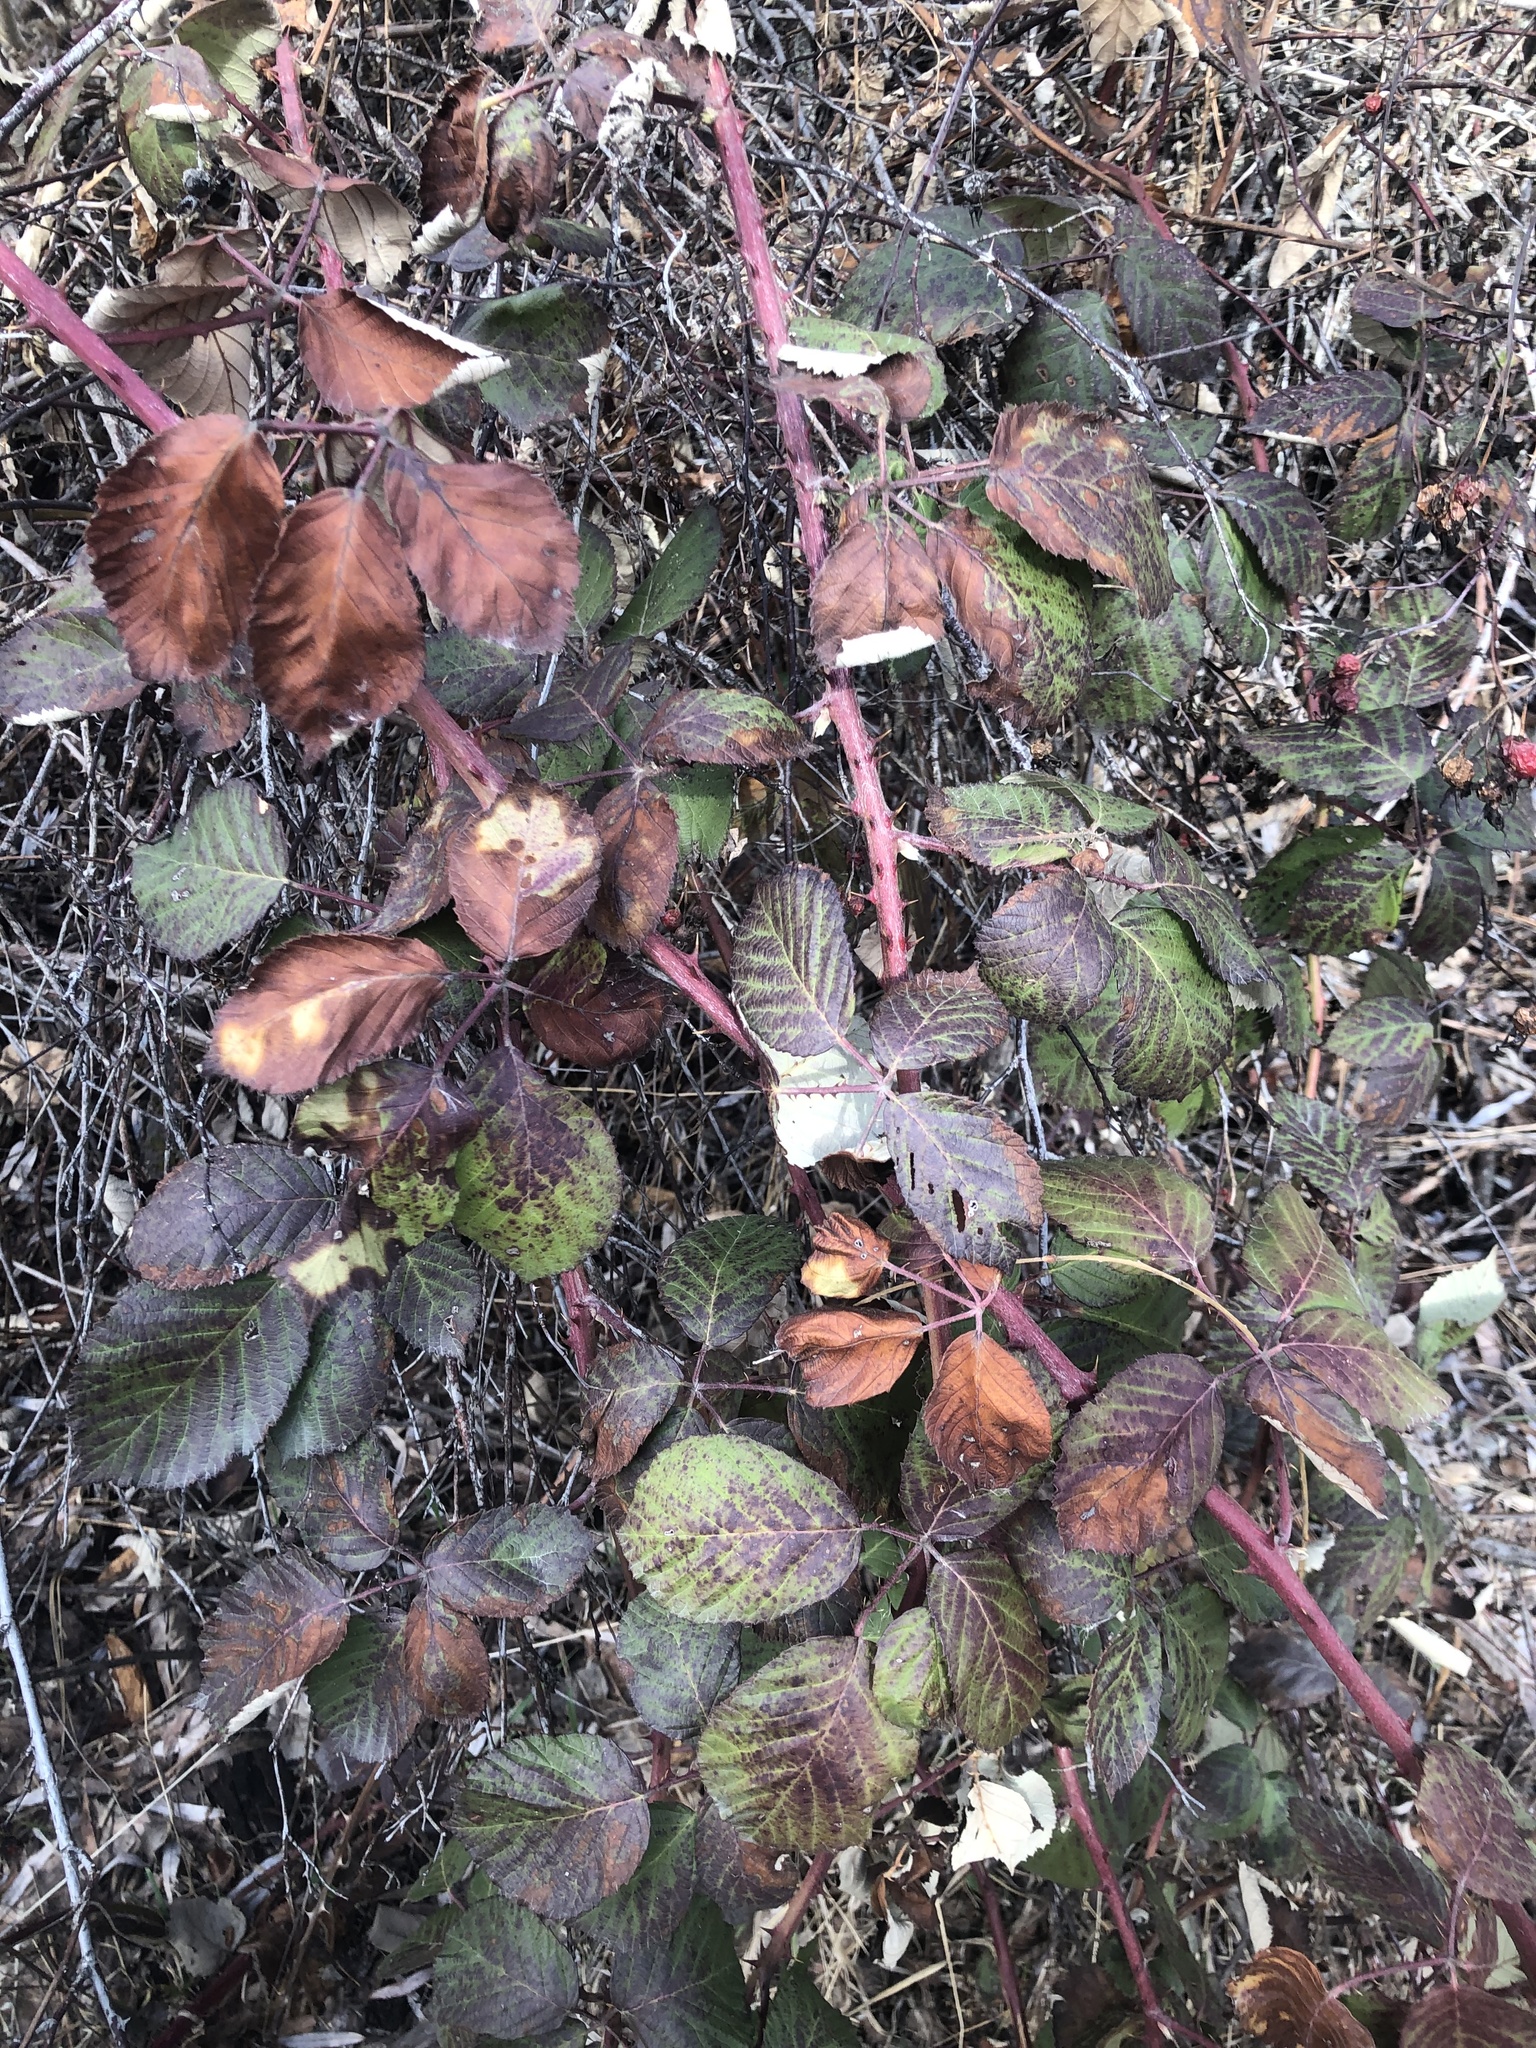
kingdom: Plantae
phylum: Tracheophyta
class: Magnoliopsida
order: Rosales
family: Rosaceae
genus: Rubus
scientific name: Rubus armeniacus
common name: Himalayan blackberry
